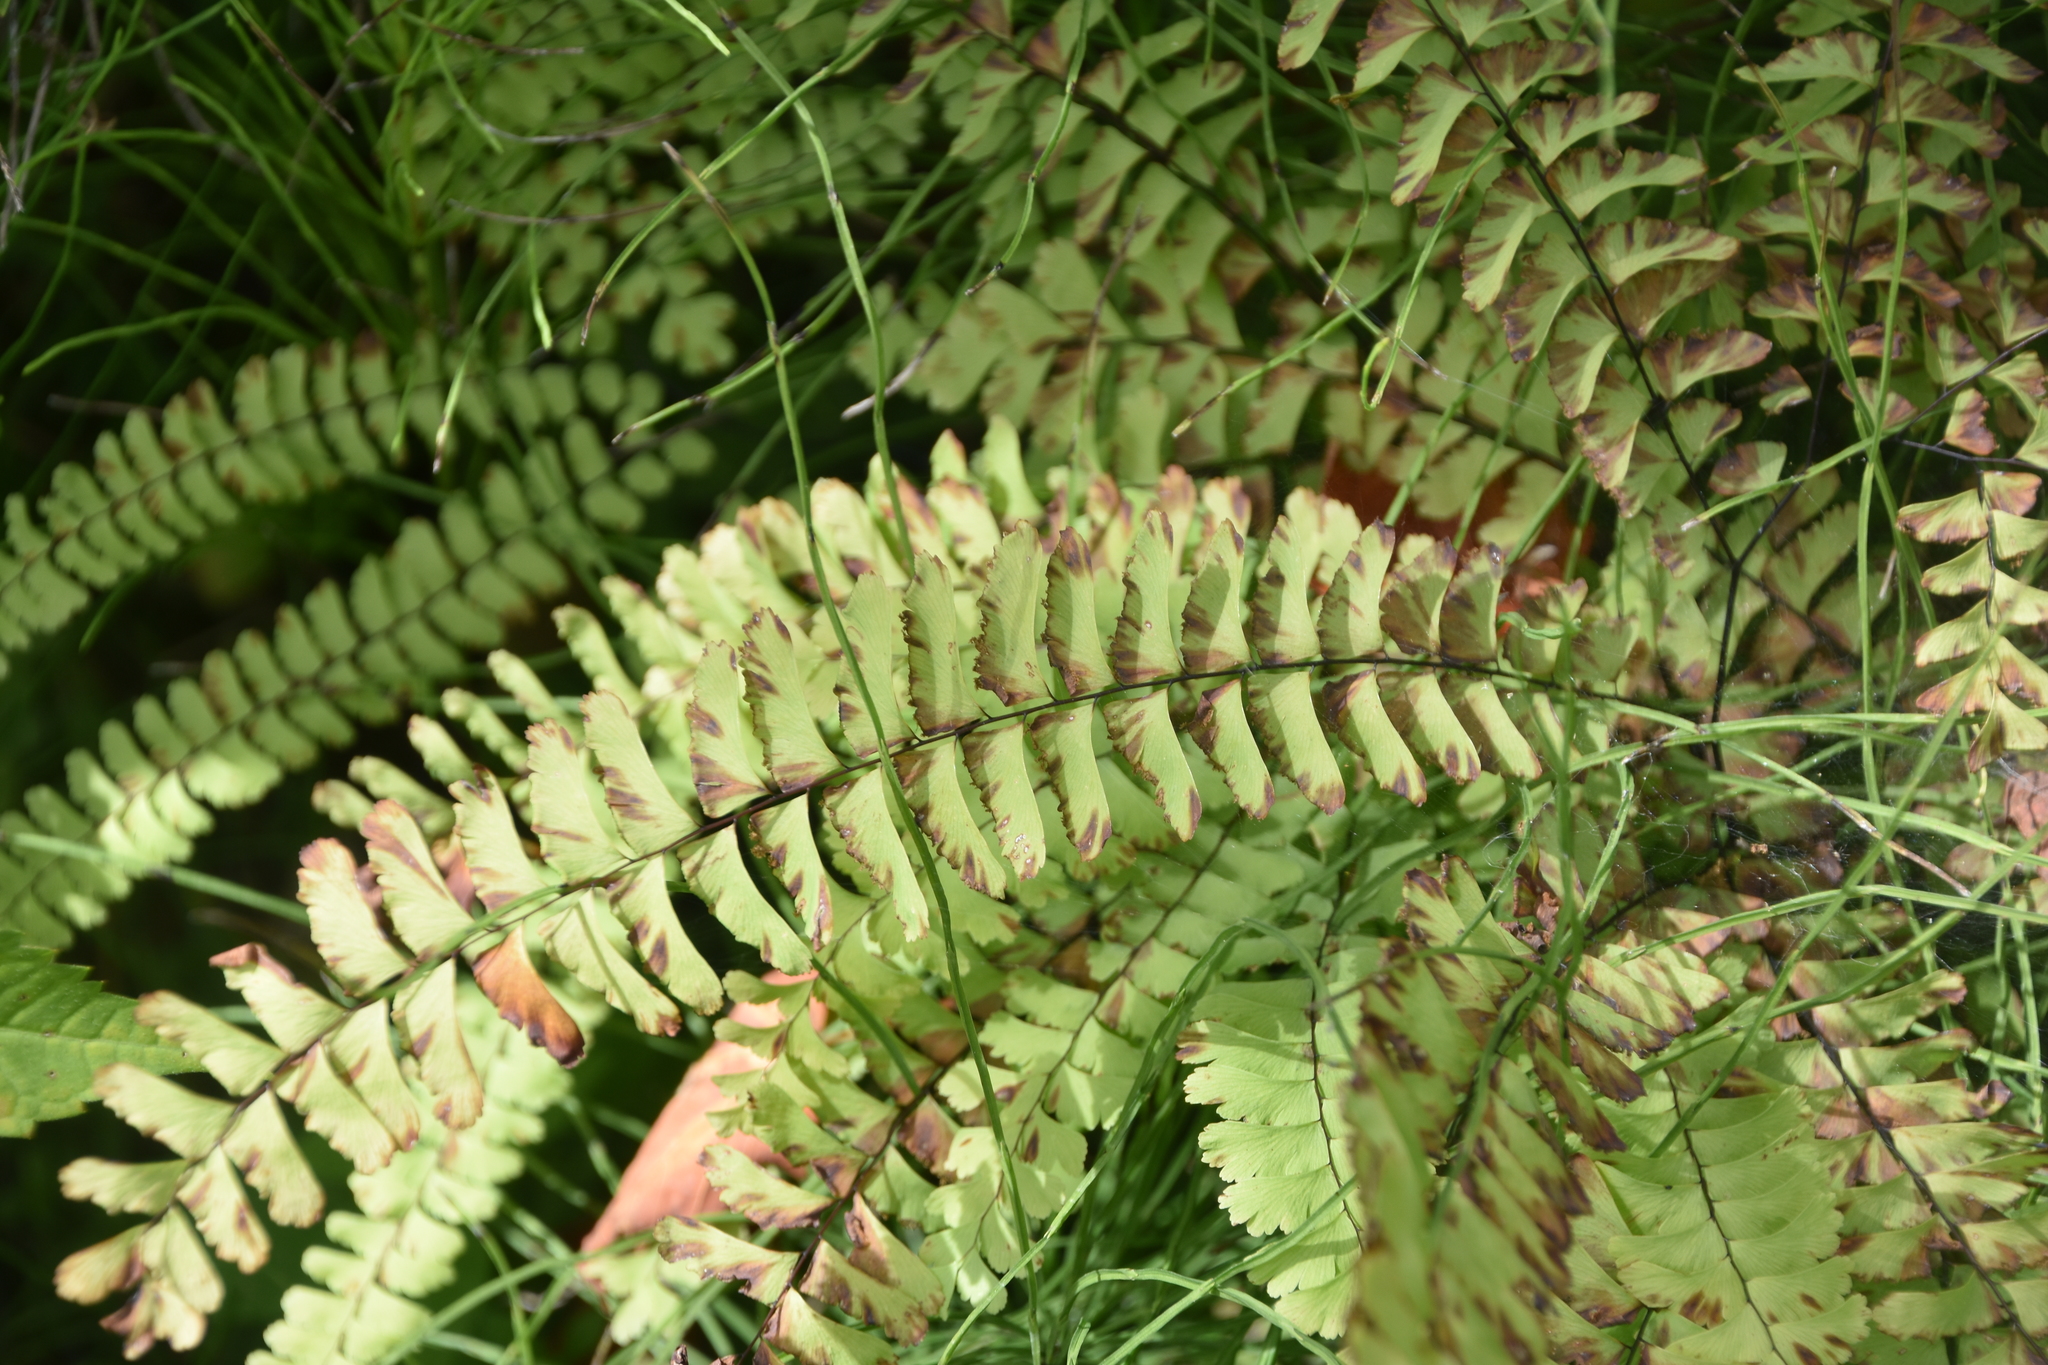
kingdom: Plantae
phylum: Tracheophyta
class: Polypodiopsida
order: Polypodiales
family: Pteridaceae
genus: Adiantum
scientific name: Adiantum pedatum
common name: Five-finger fern
